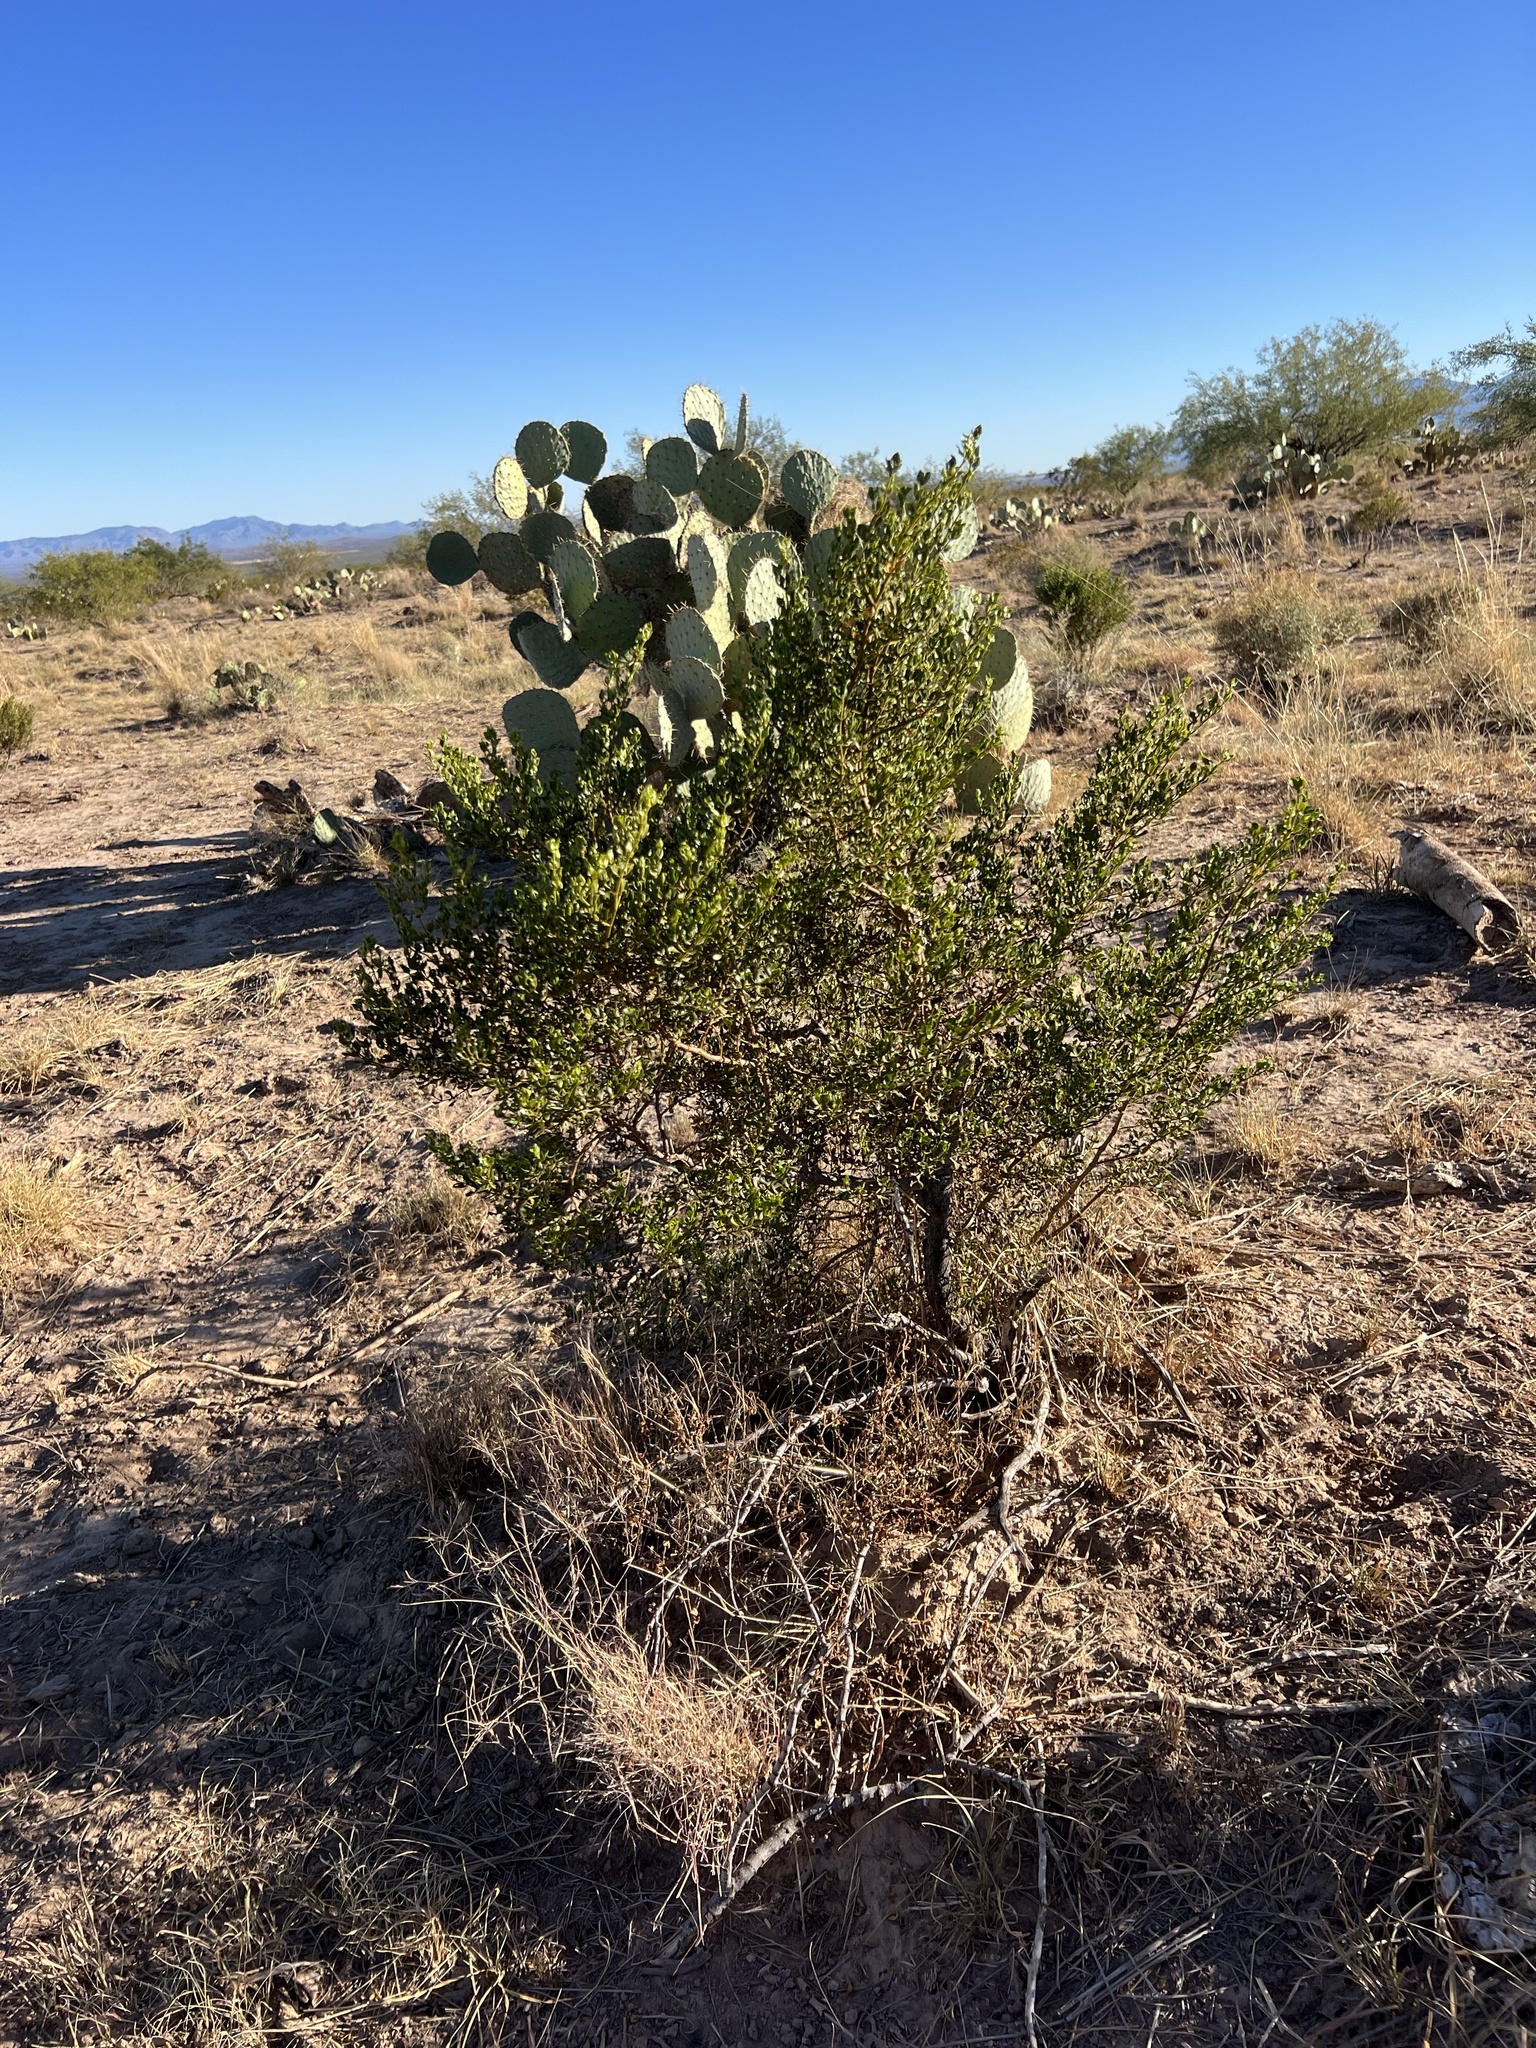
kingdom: Plantae
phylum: Tracheophyta
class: Magnoliopsida
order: Zygophyllales
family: Zygophyllaceae
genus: Larrea
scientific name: Larrea tridentata
